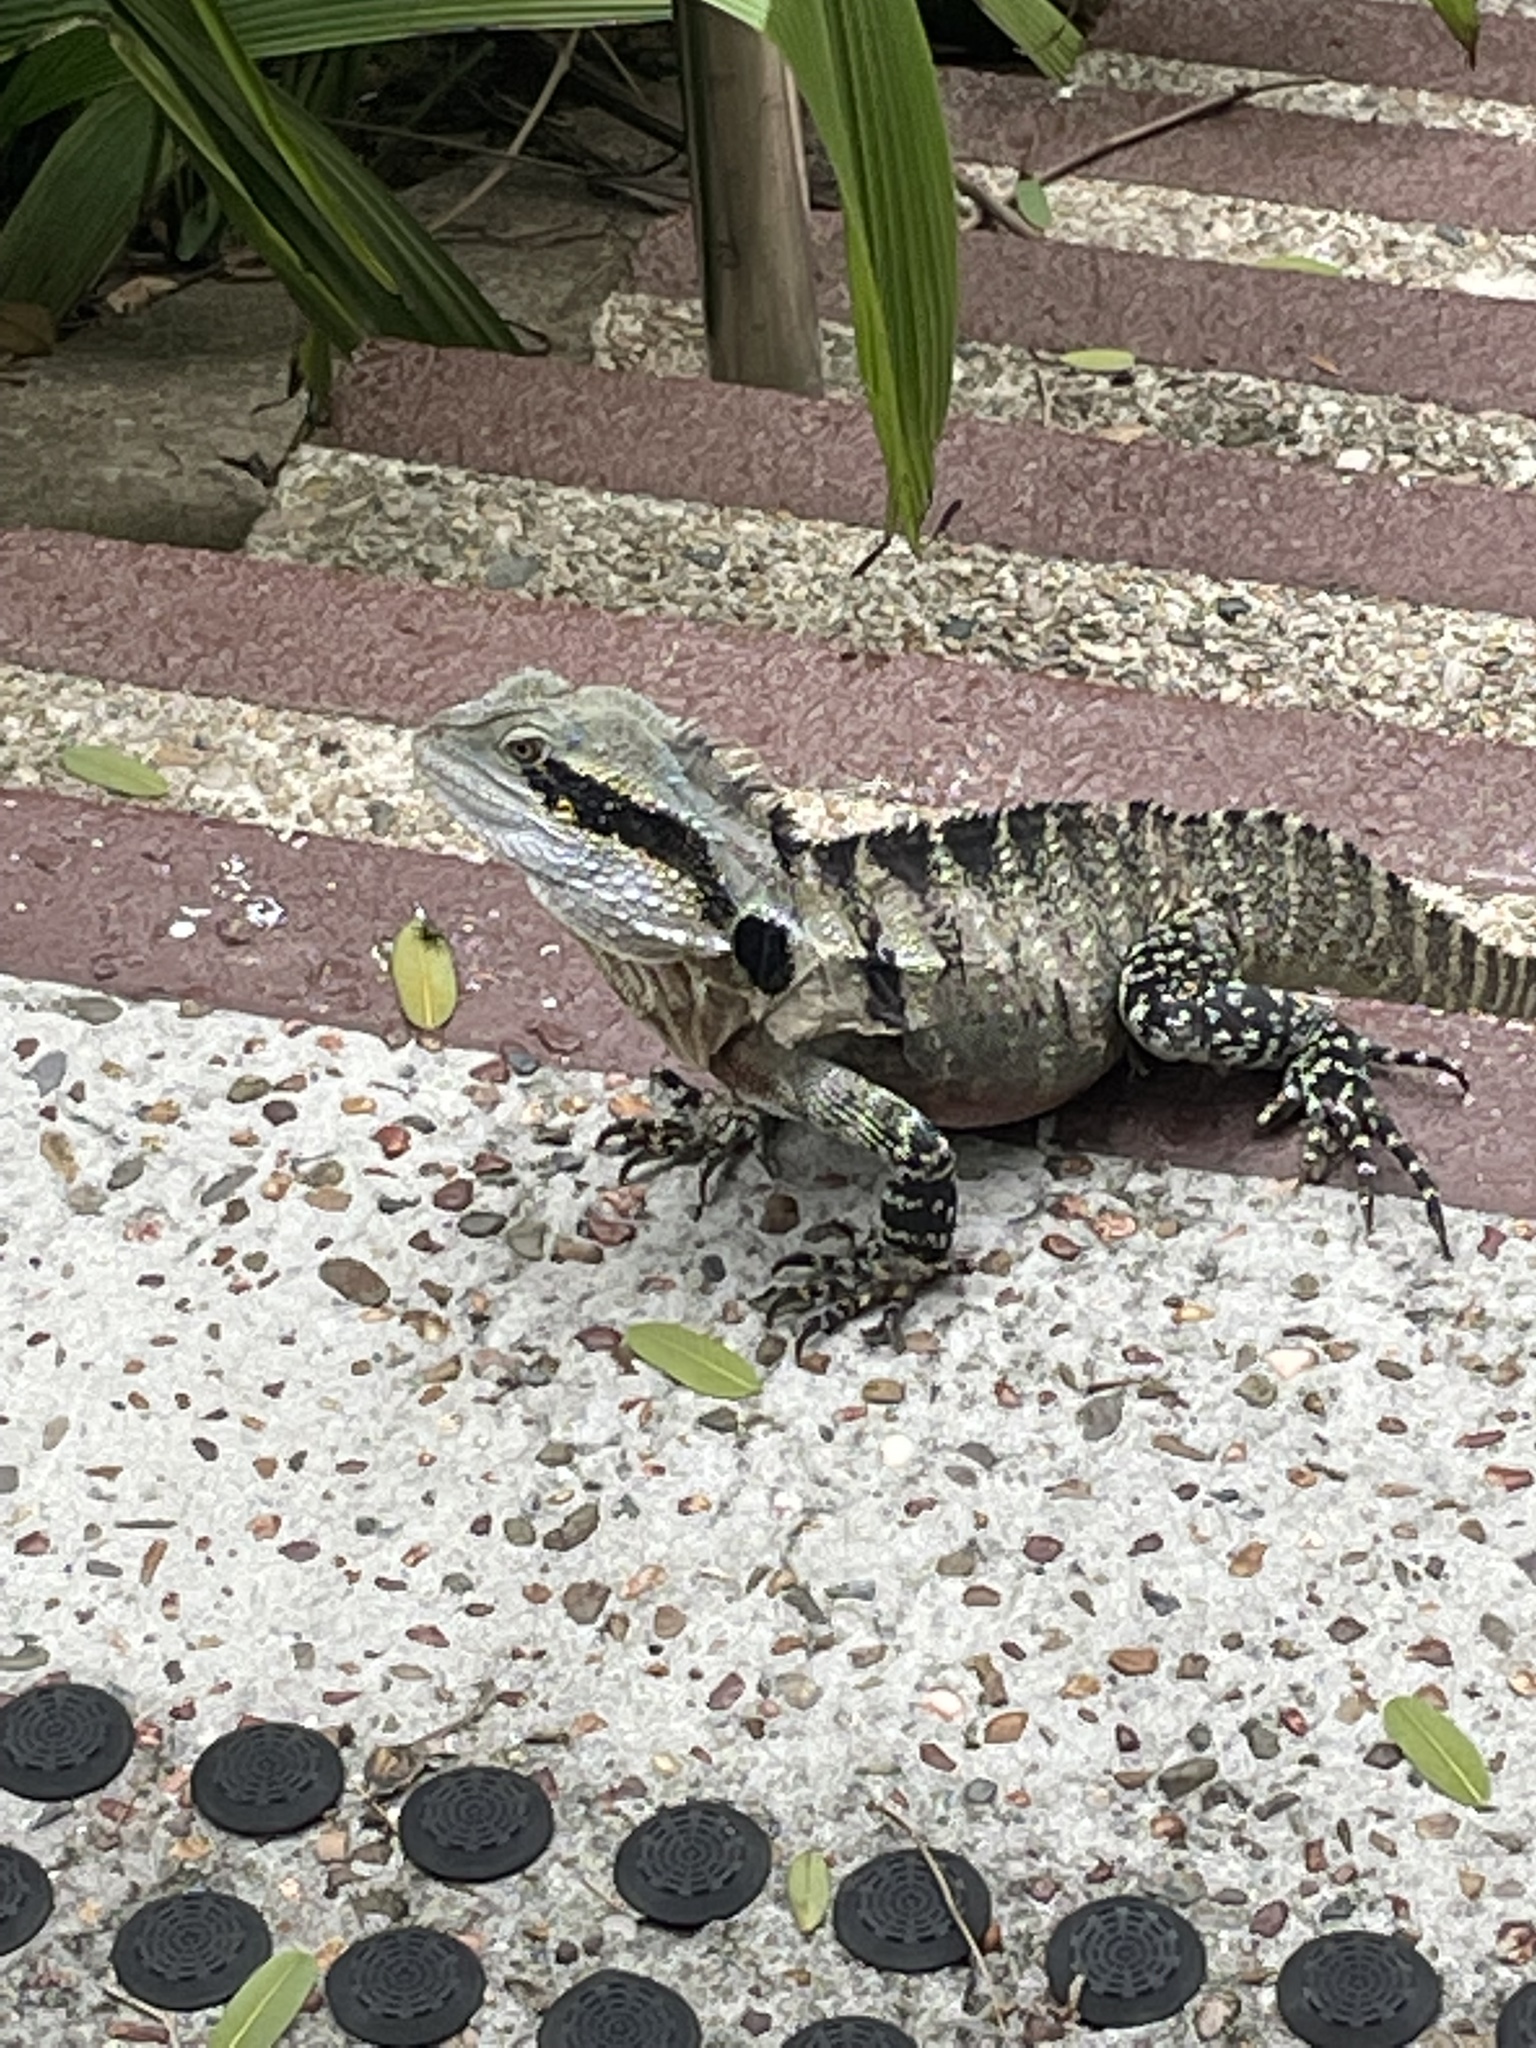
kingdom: Animalia
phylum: Chordata
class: Squamata
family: Agamidae
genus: Intellagama
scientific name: Intellagama lesueurii
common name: Eastern water dragon
